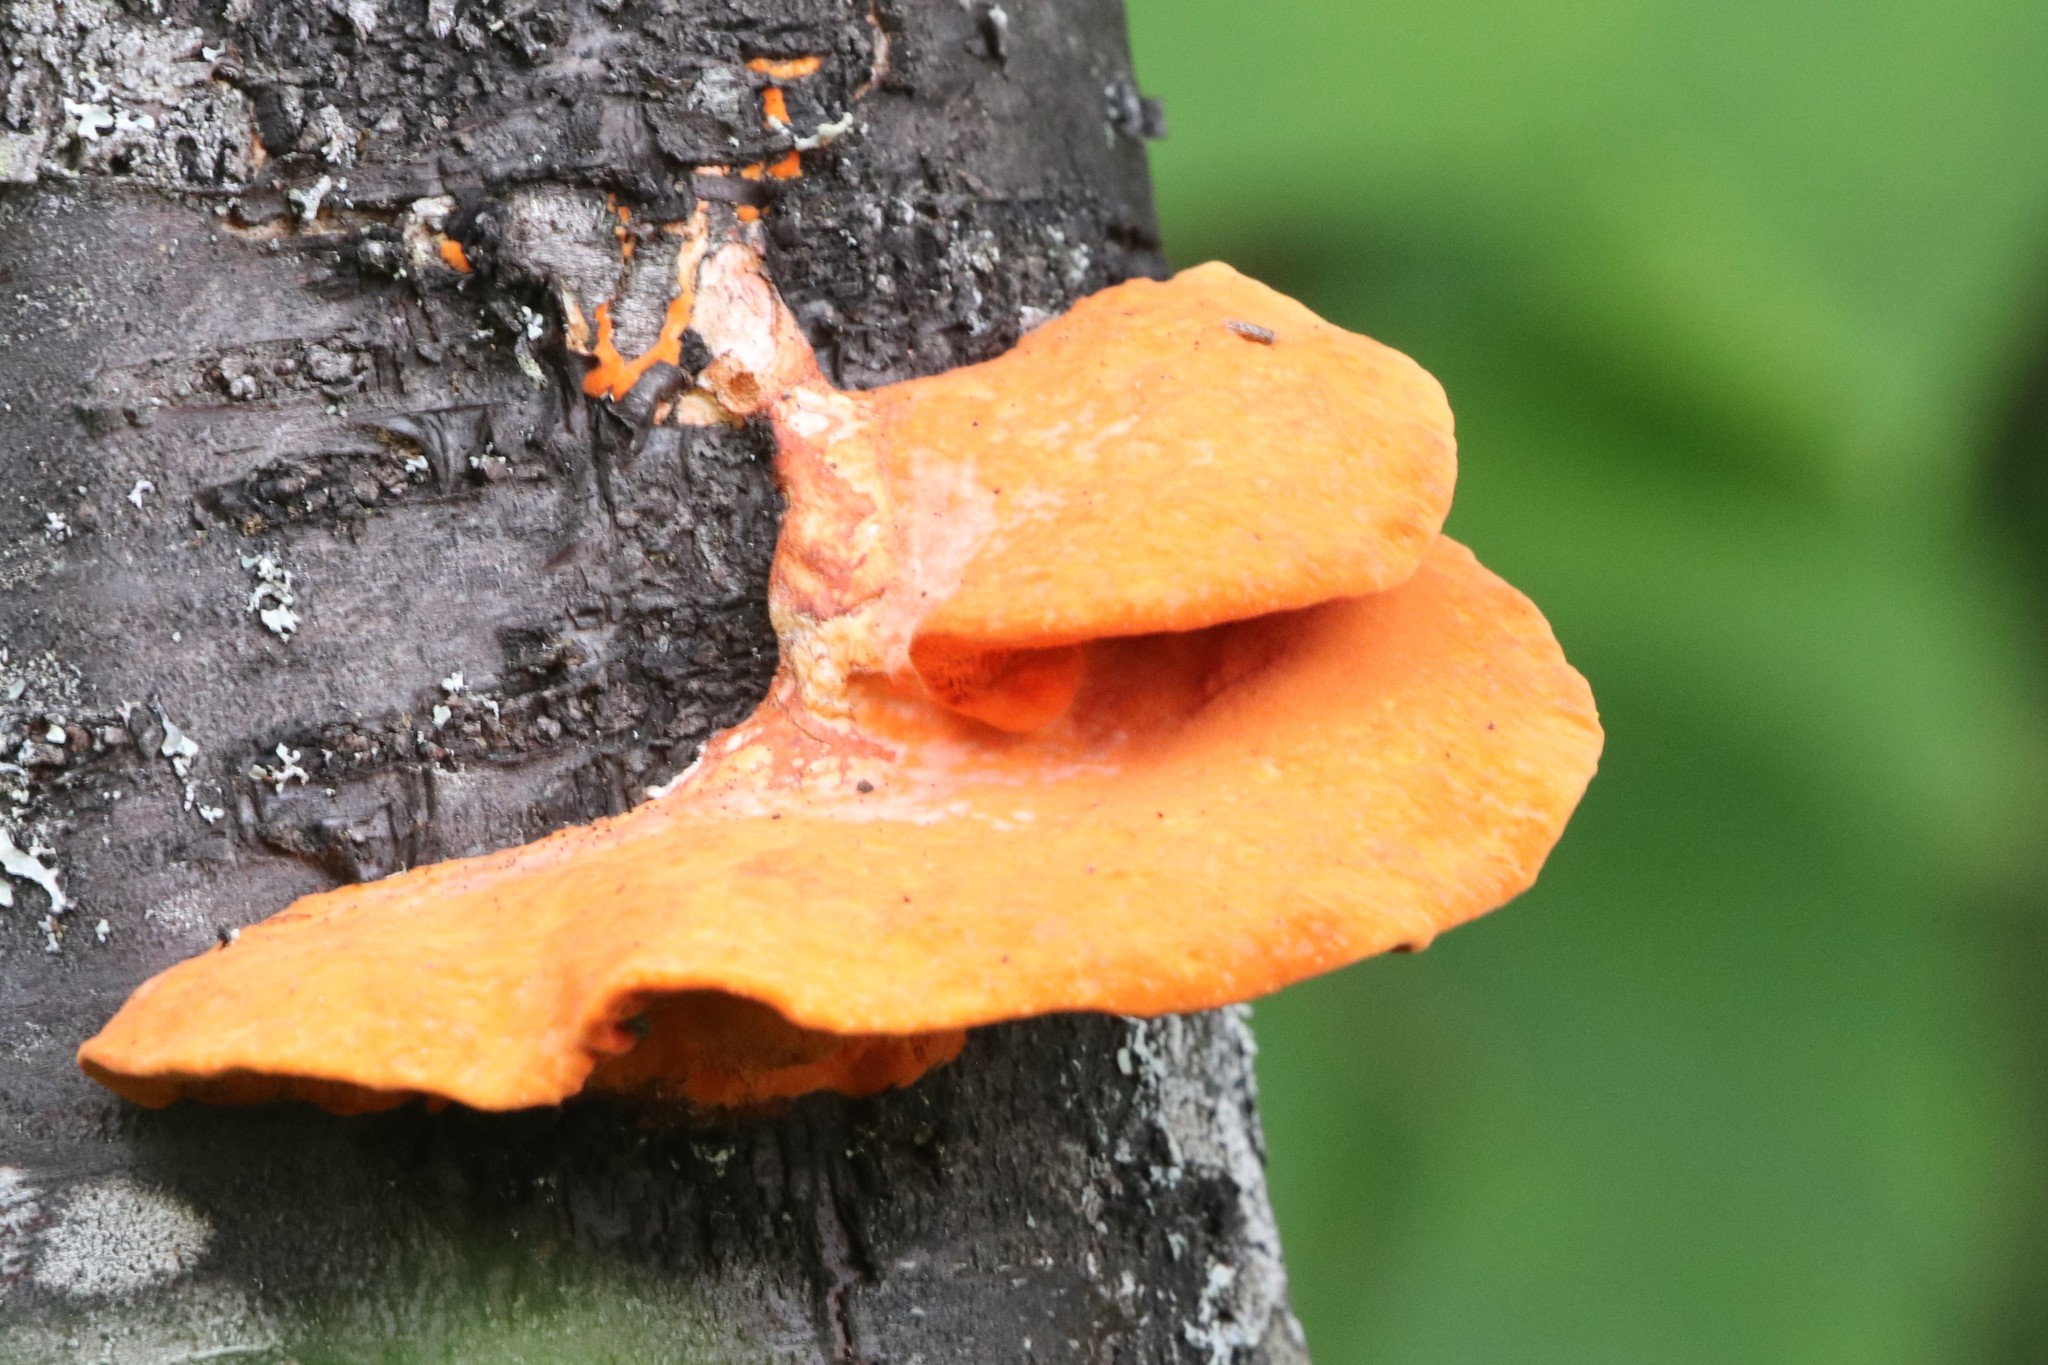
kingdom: Fungi
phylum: Basidiomycota
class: Agaricomycetes
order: Polyporales
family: Polyporaceae
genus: Trametes
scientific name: Trametes cinnabarina
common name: Northern cinnabar polypore
